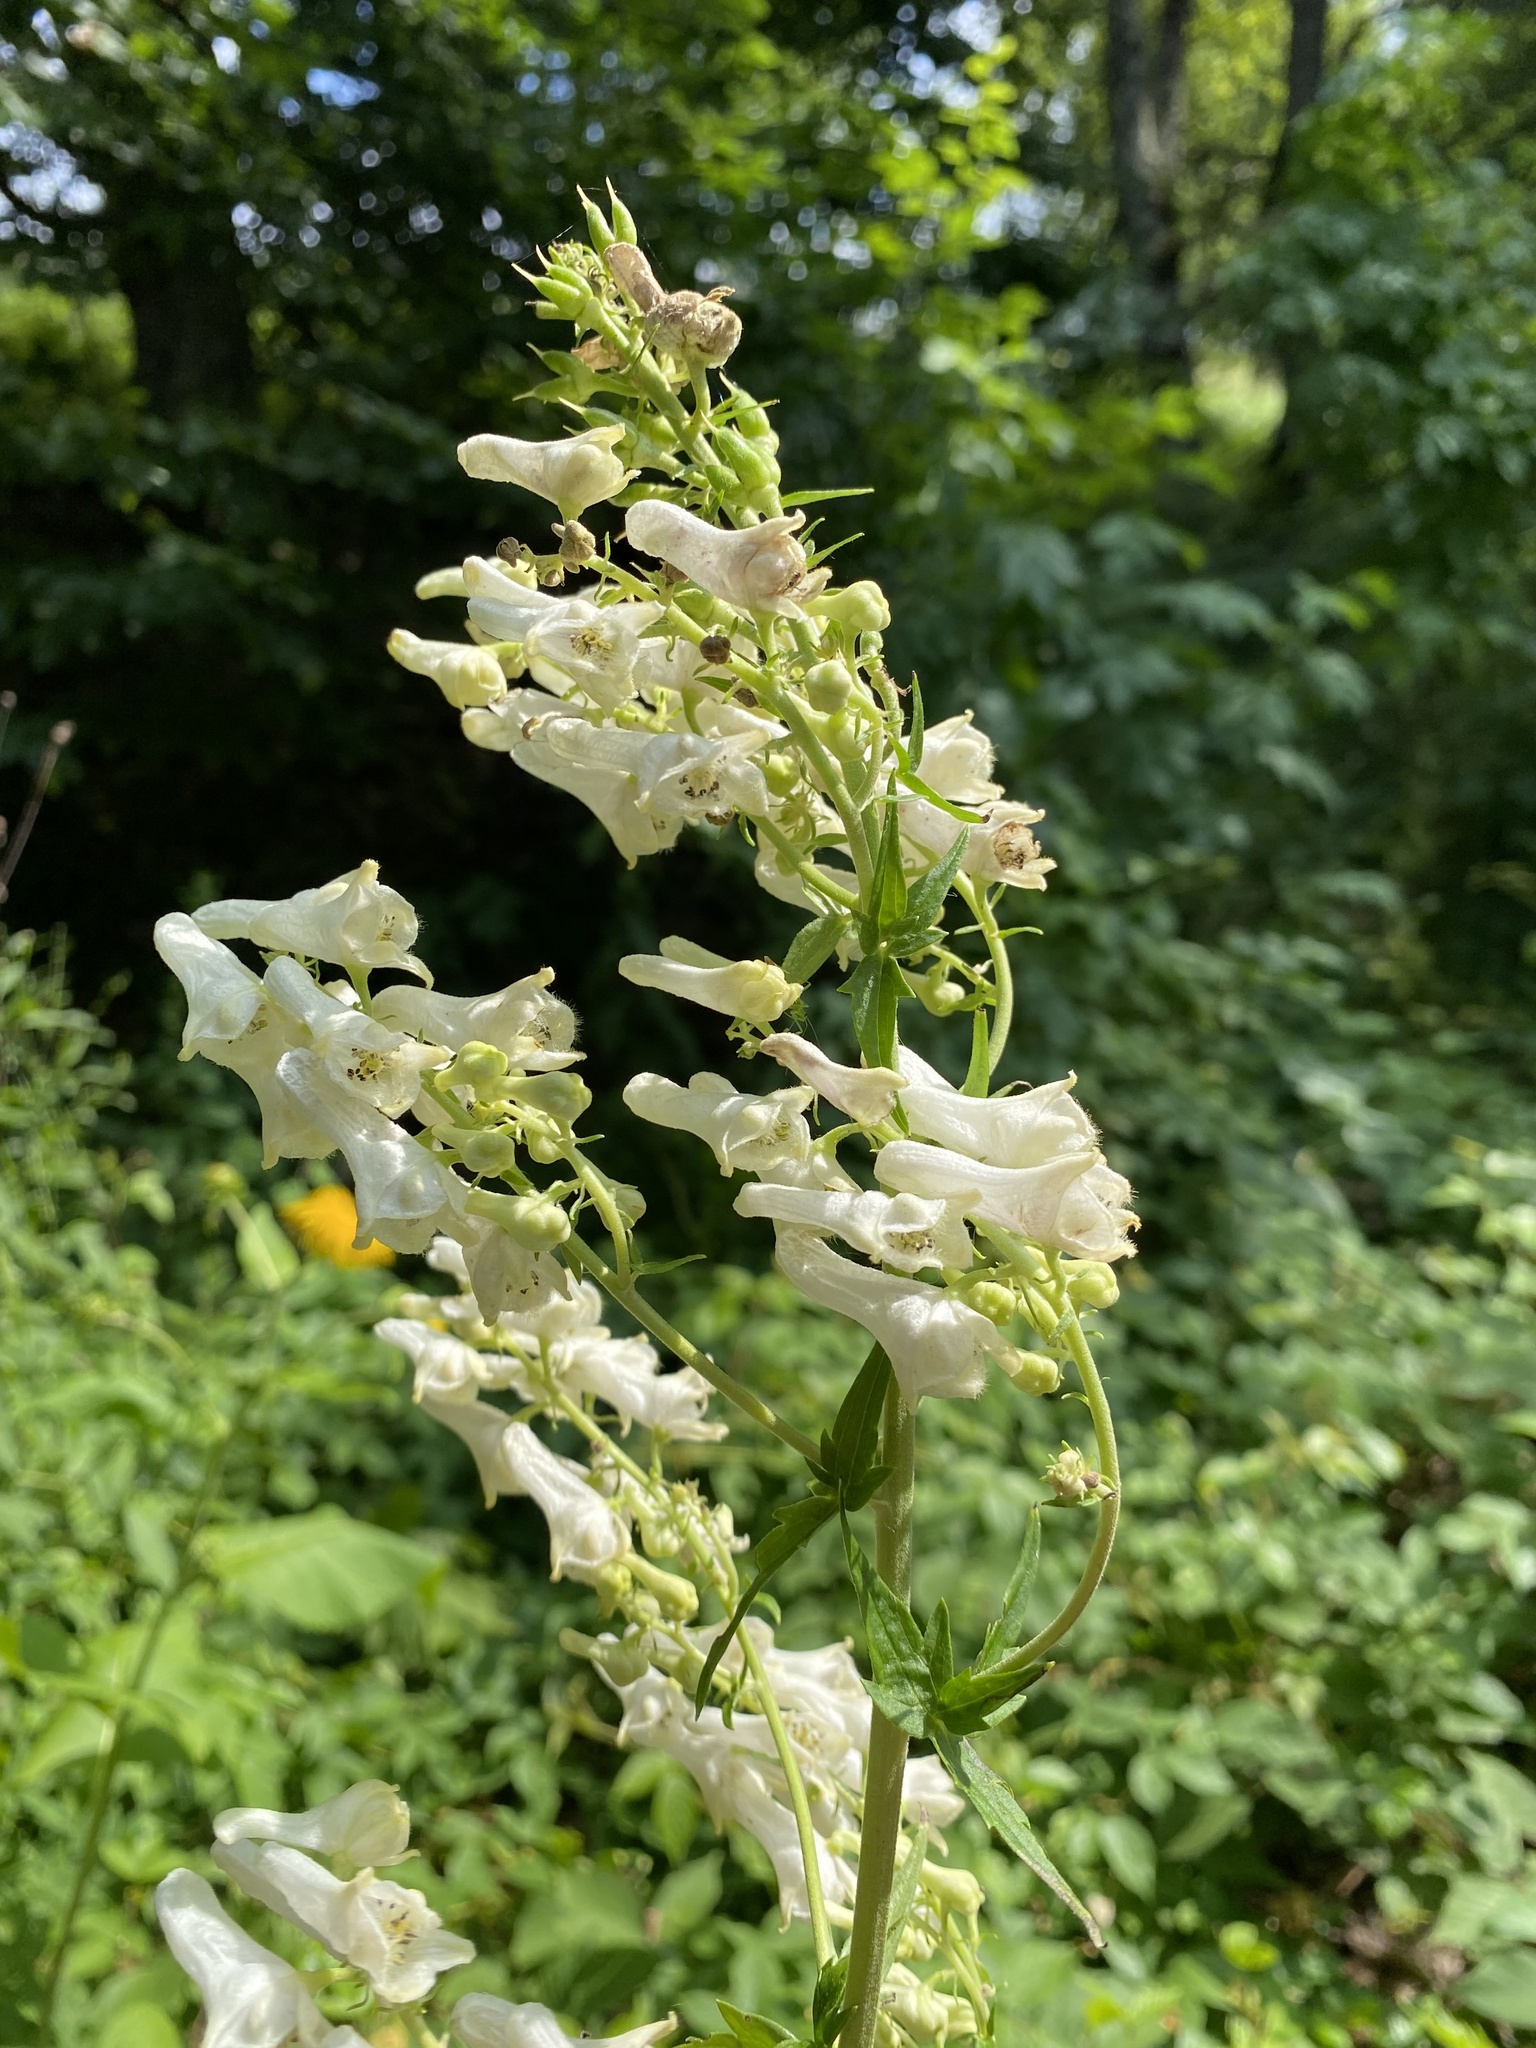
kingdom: Plantae
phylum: Tracheophyta
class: Magnoliopsida
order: Ranunculales
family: Ranunculaceae
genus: Aconitum
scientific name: Aconitum orientale
